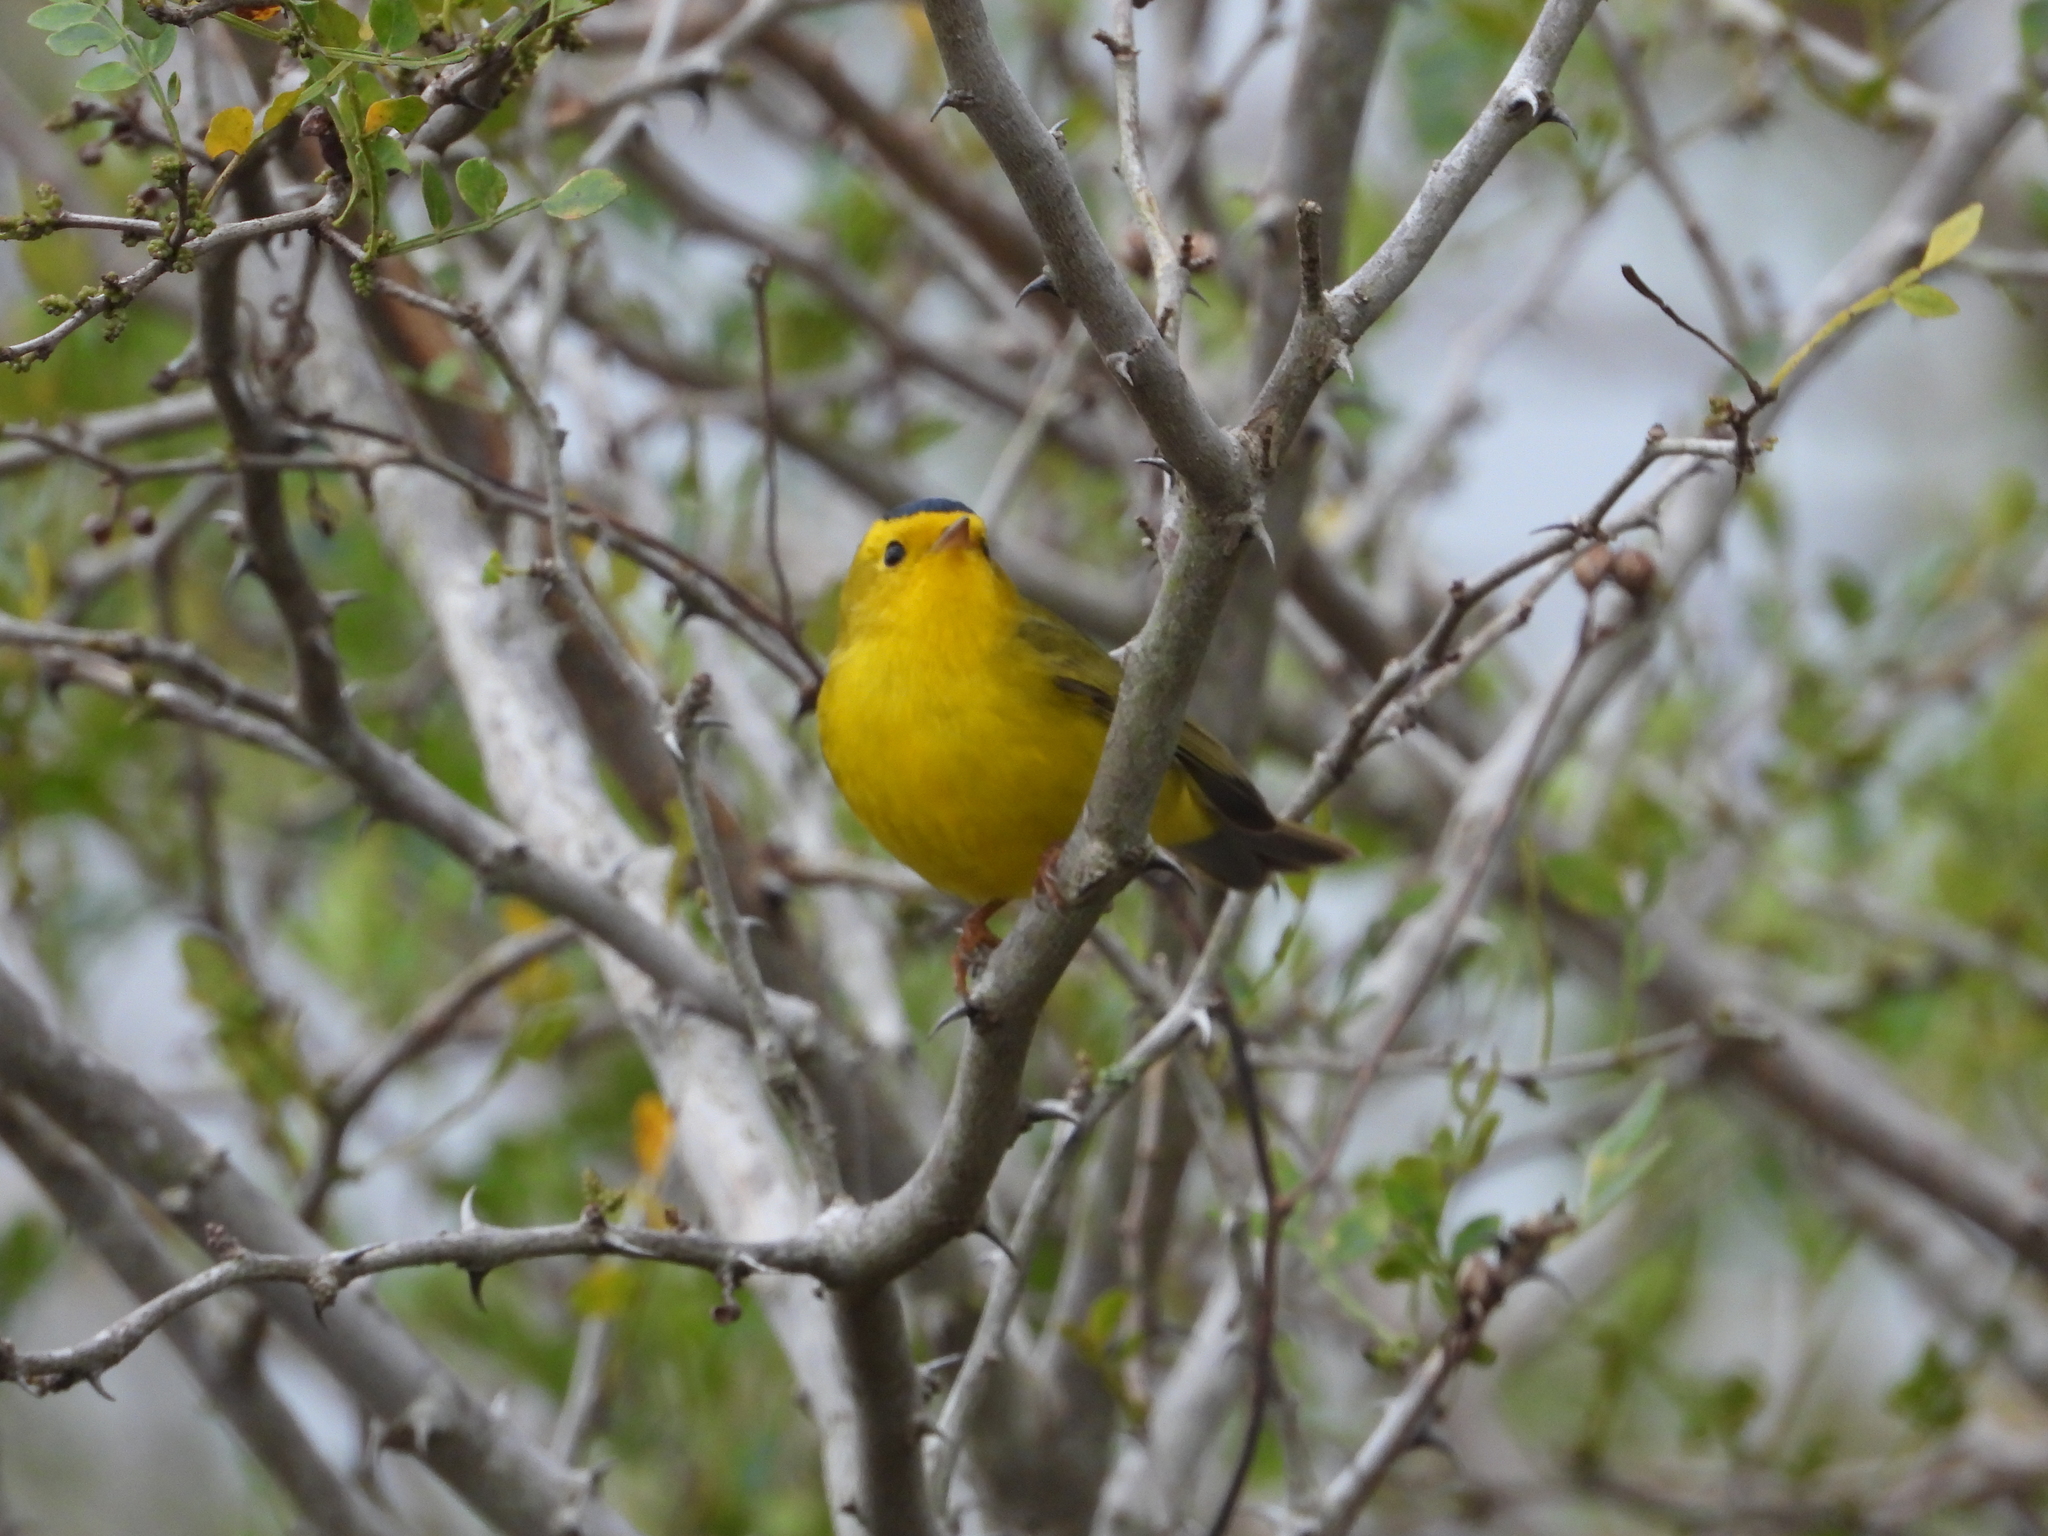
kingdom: Animalia
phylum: Chordata
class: Aves
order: Passeriformes
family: Parulidae
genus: Cardellina
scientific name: Cardellina pusilla
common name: Wilson's warbler
